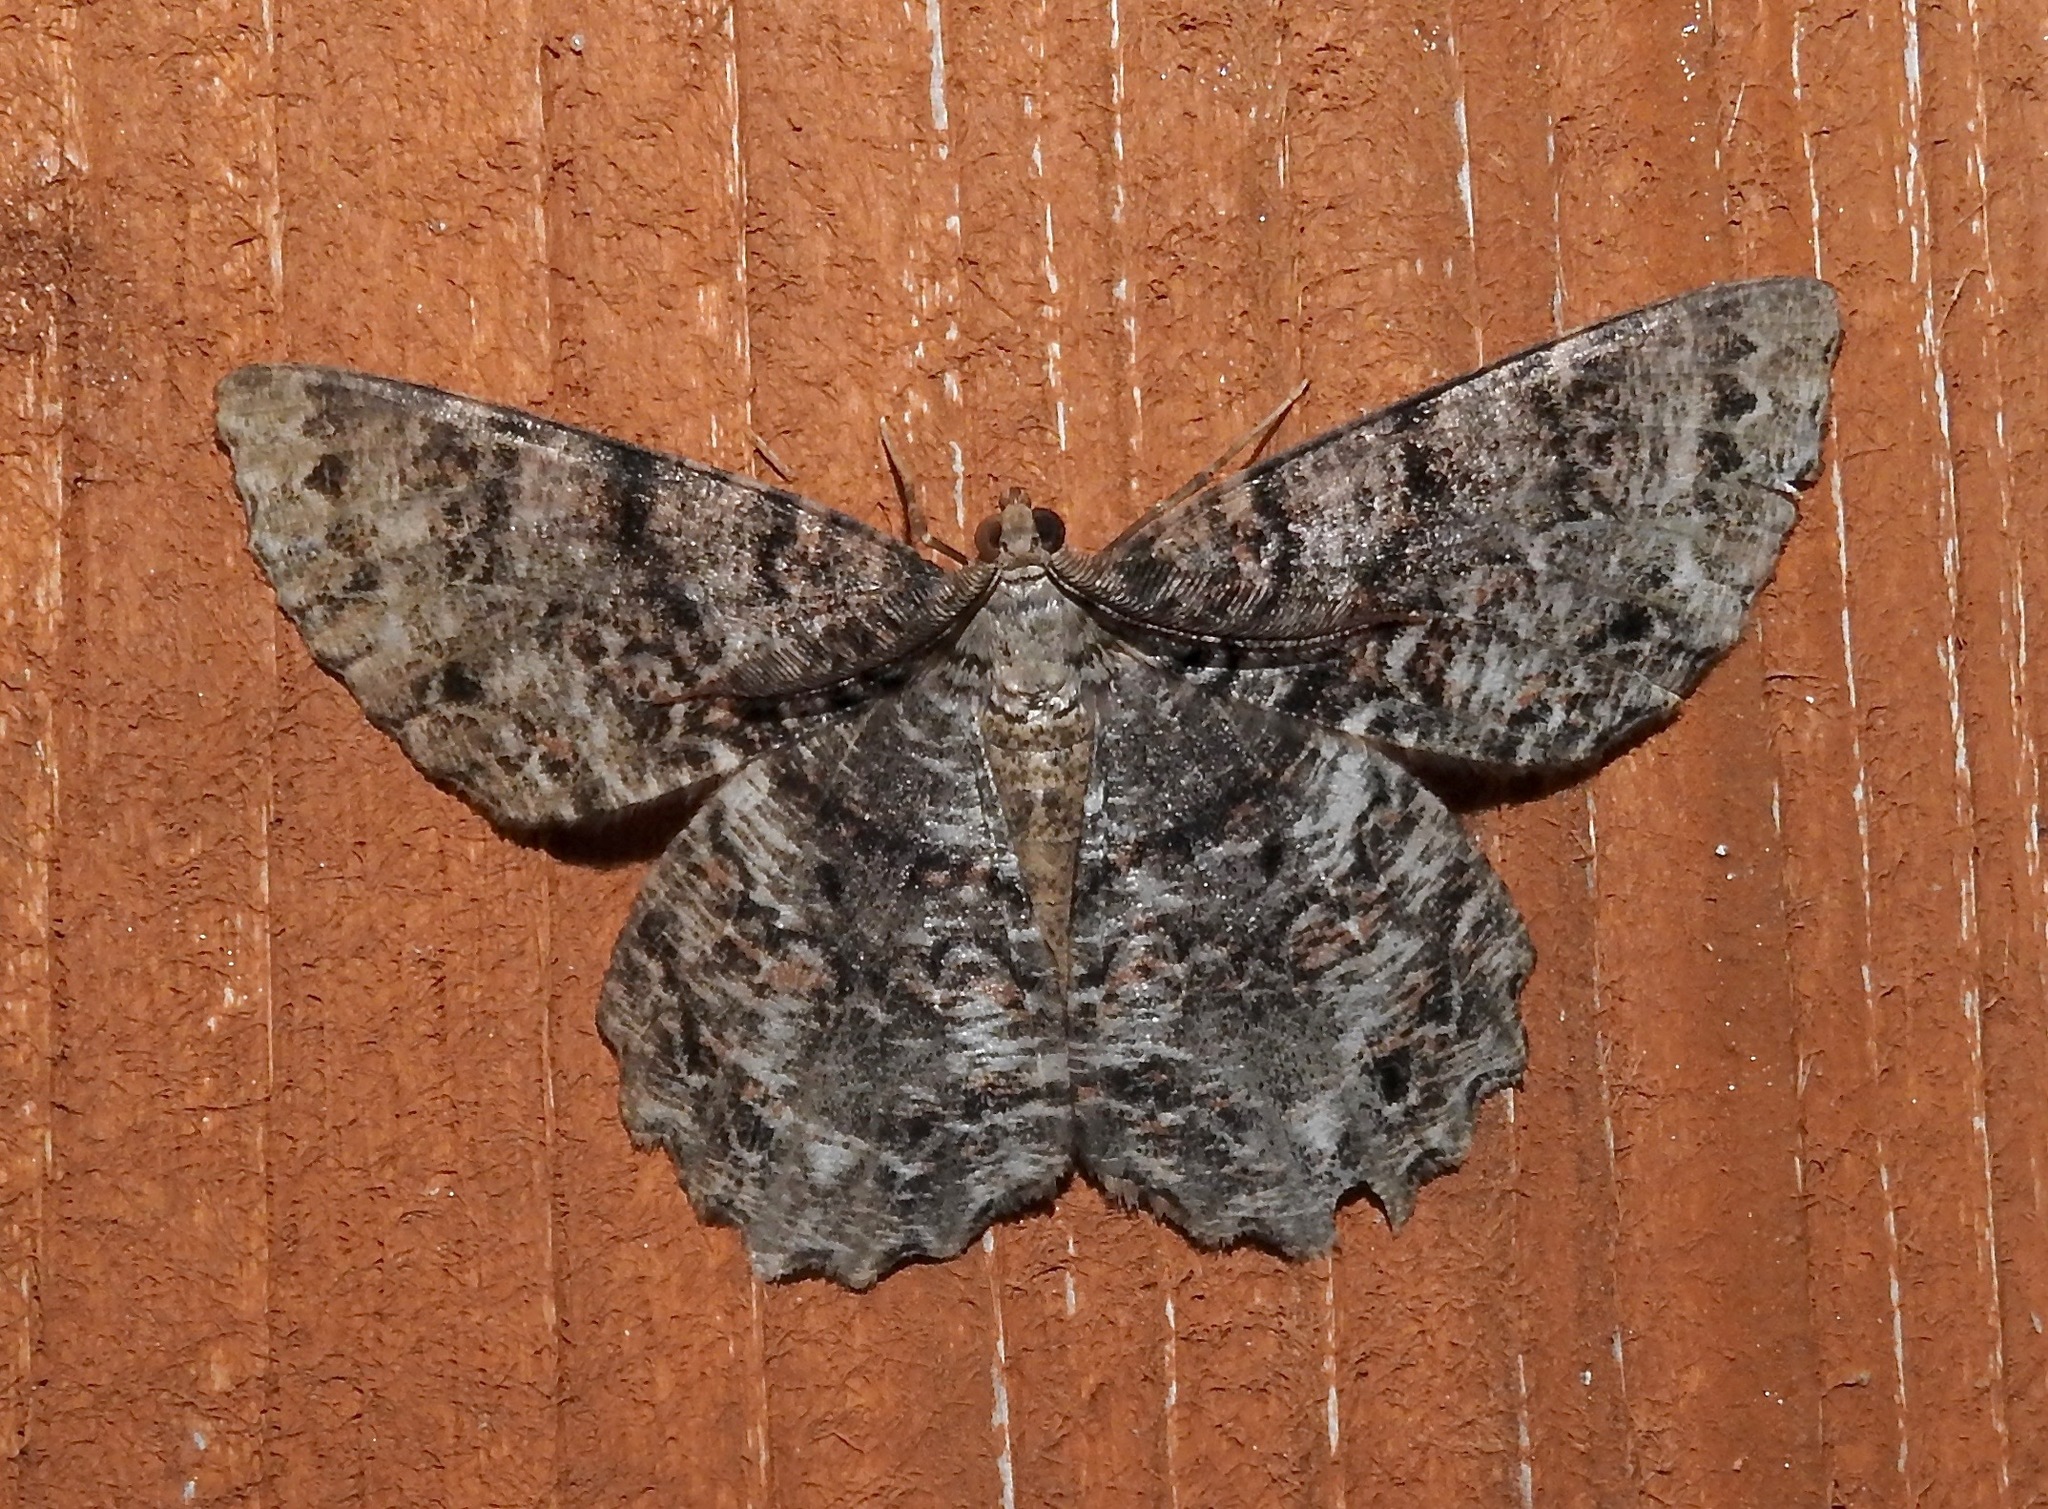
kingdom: Animalia
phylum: Arthropoda
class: Insecta
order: Lepidoptera
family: Geometridae
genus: Epimecis
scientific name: Epimecis hortaria
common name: Tulip-tree beauty
